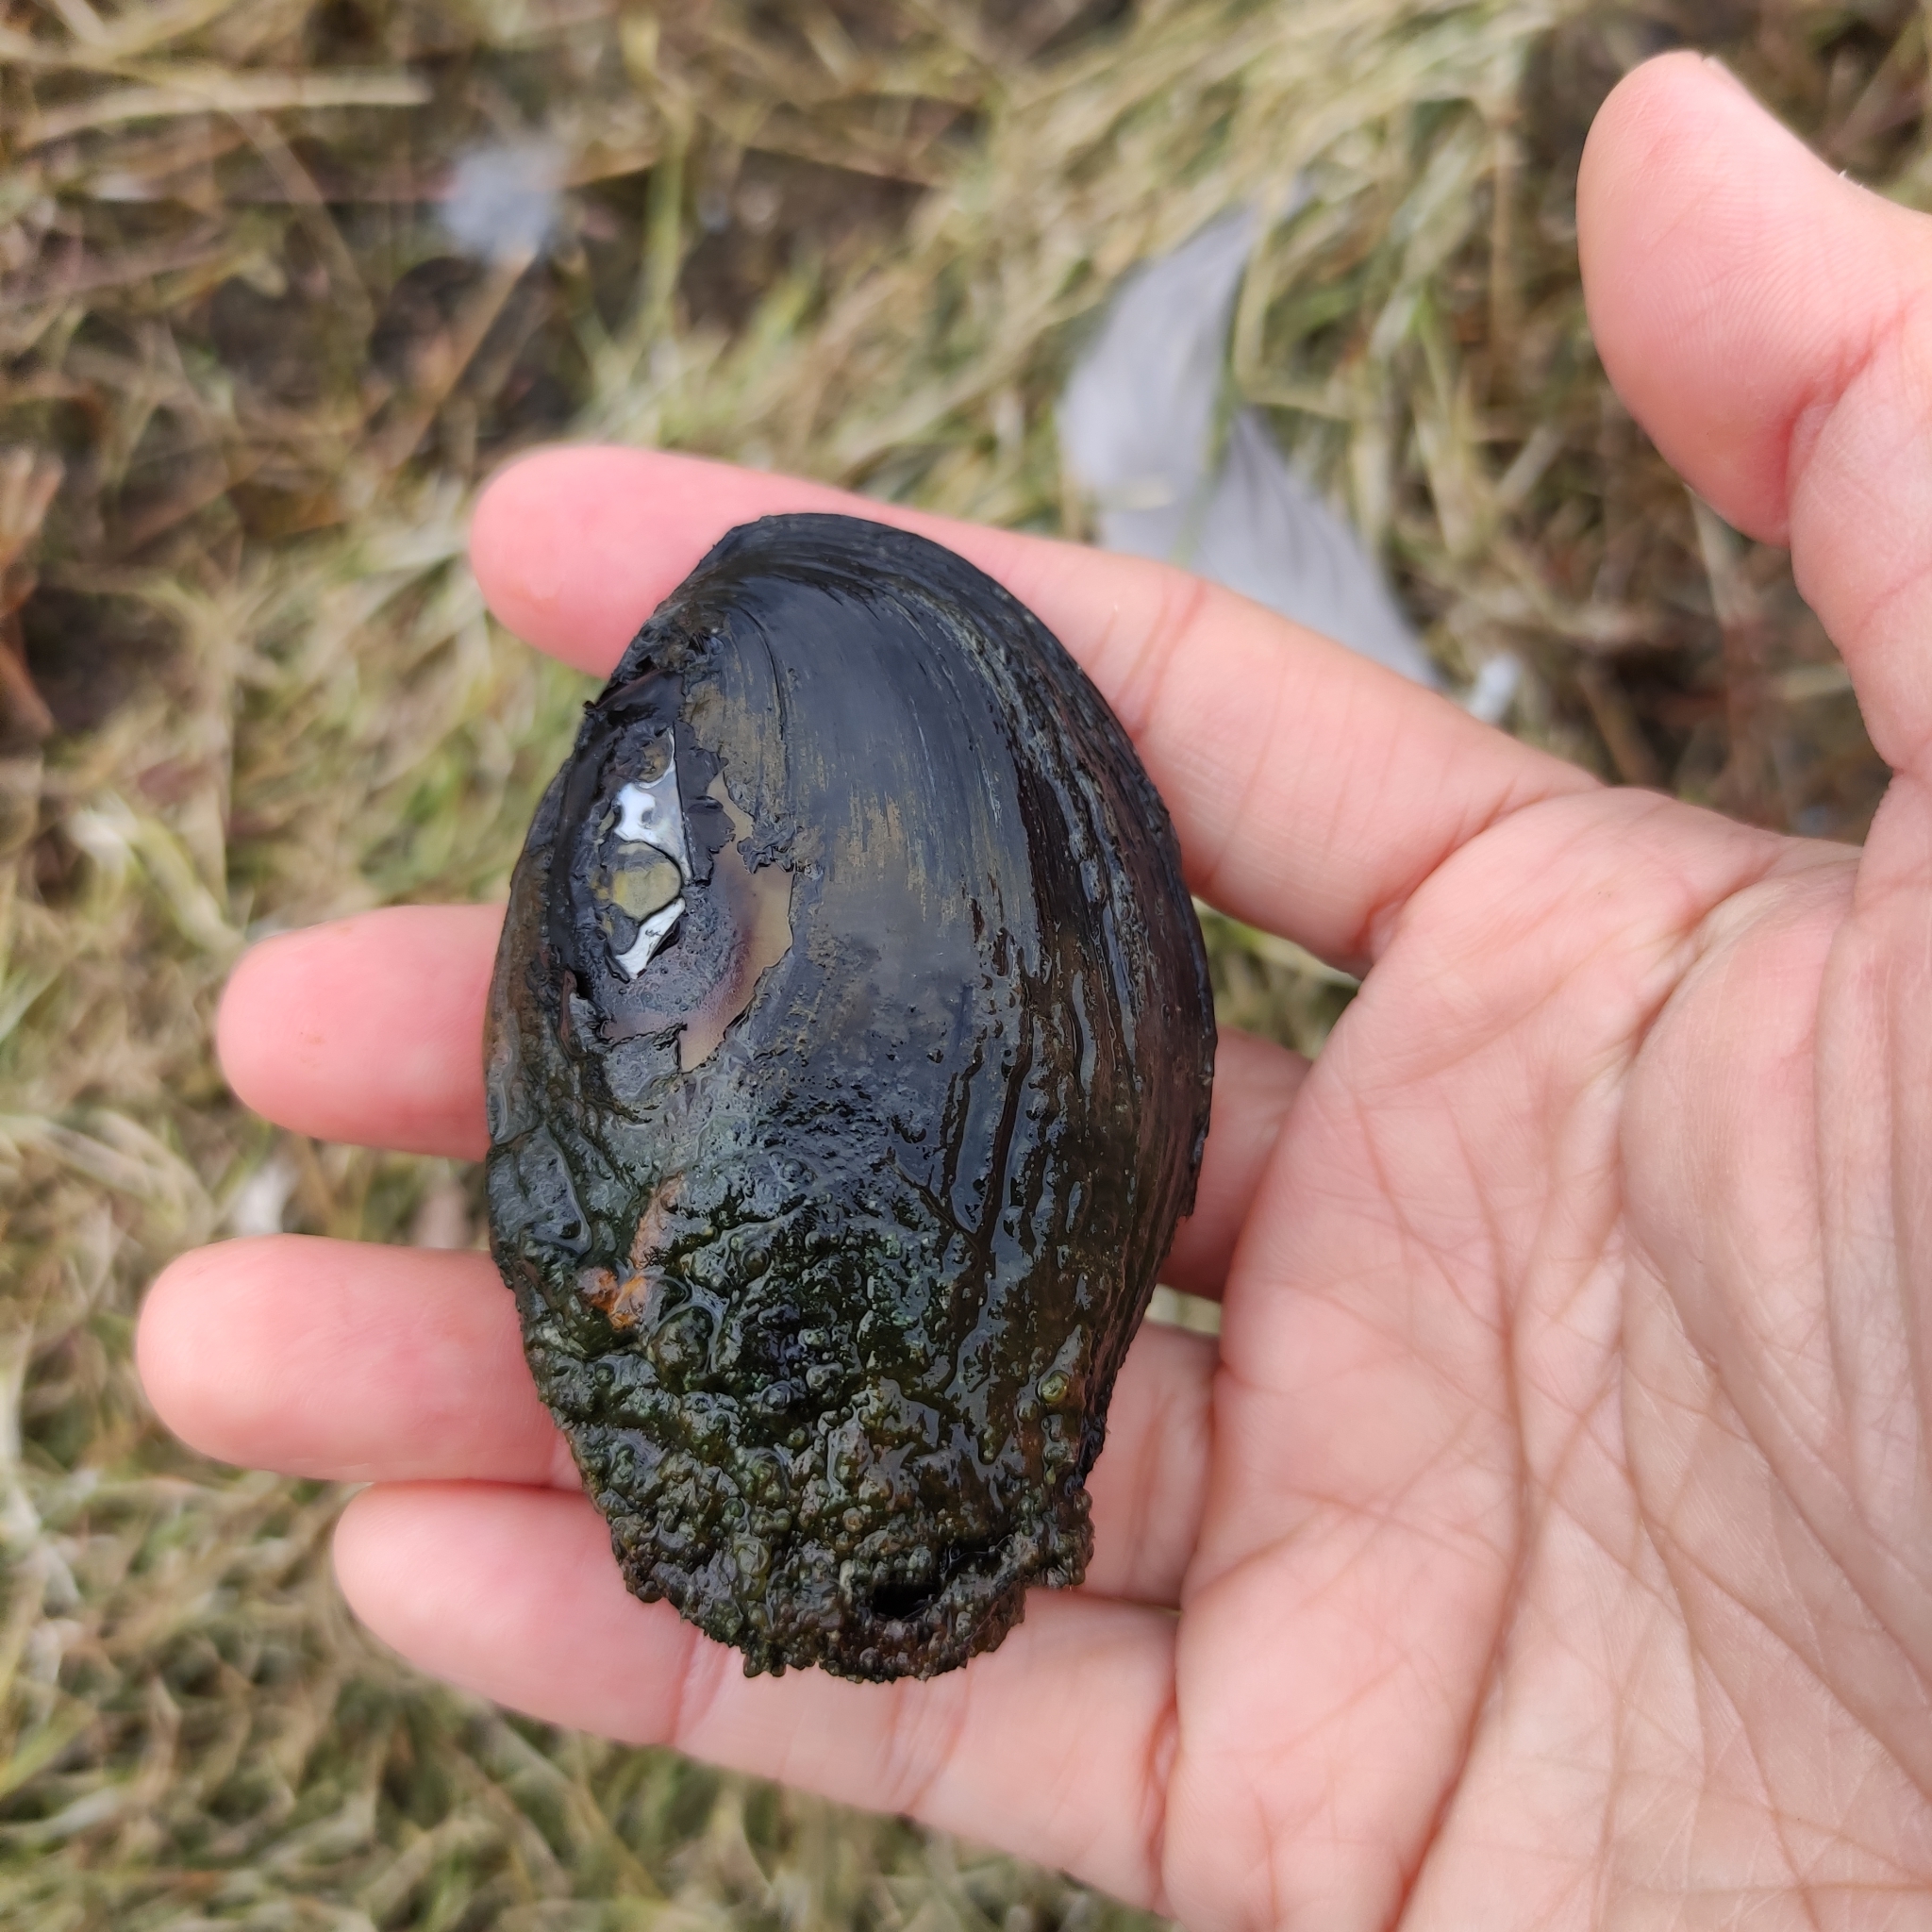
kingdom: Animalia
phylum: Mollusca
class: Bivalvia
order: Unionida
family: Hyriidae
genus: Echyridella
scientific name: Echyridella menziesii
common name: New zealand freshwater mussel
